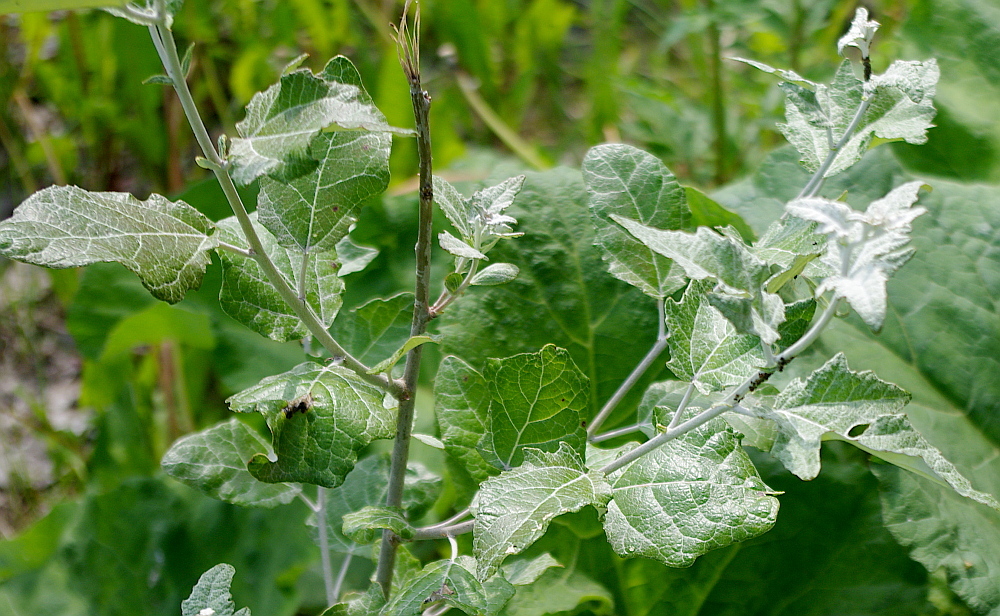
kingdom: Plantae
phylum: Tracheophyta
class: Magnoliopsida
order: Malpighiales
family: Salicaceae
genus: Populus
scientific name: Populus alba
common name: White poplar
